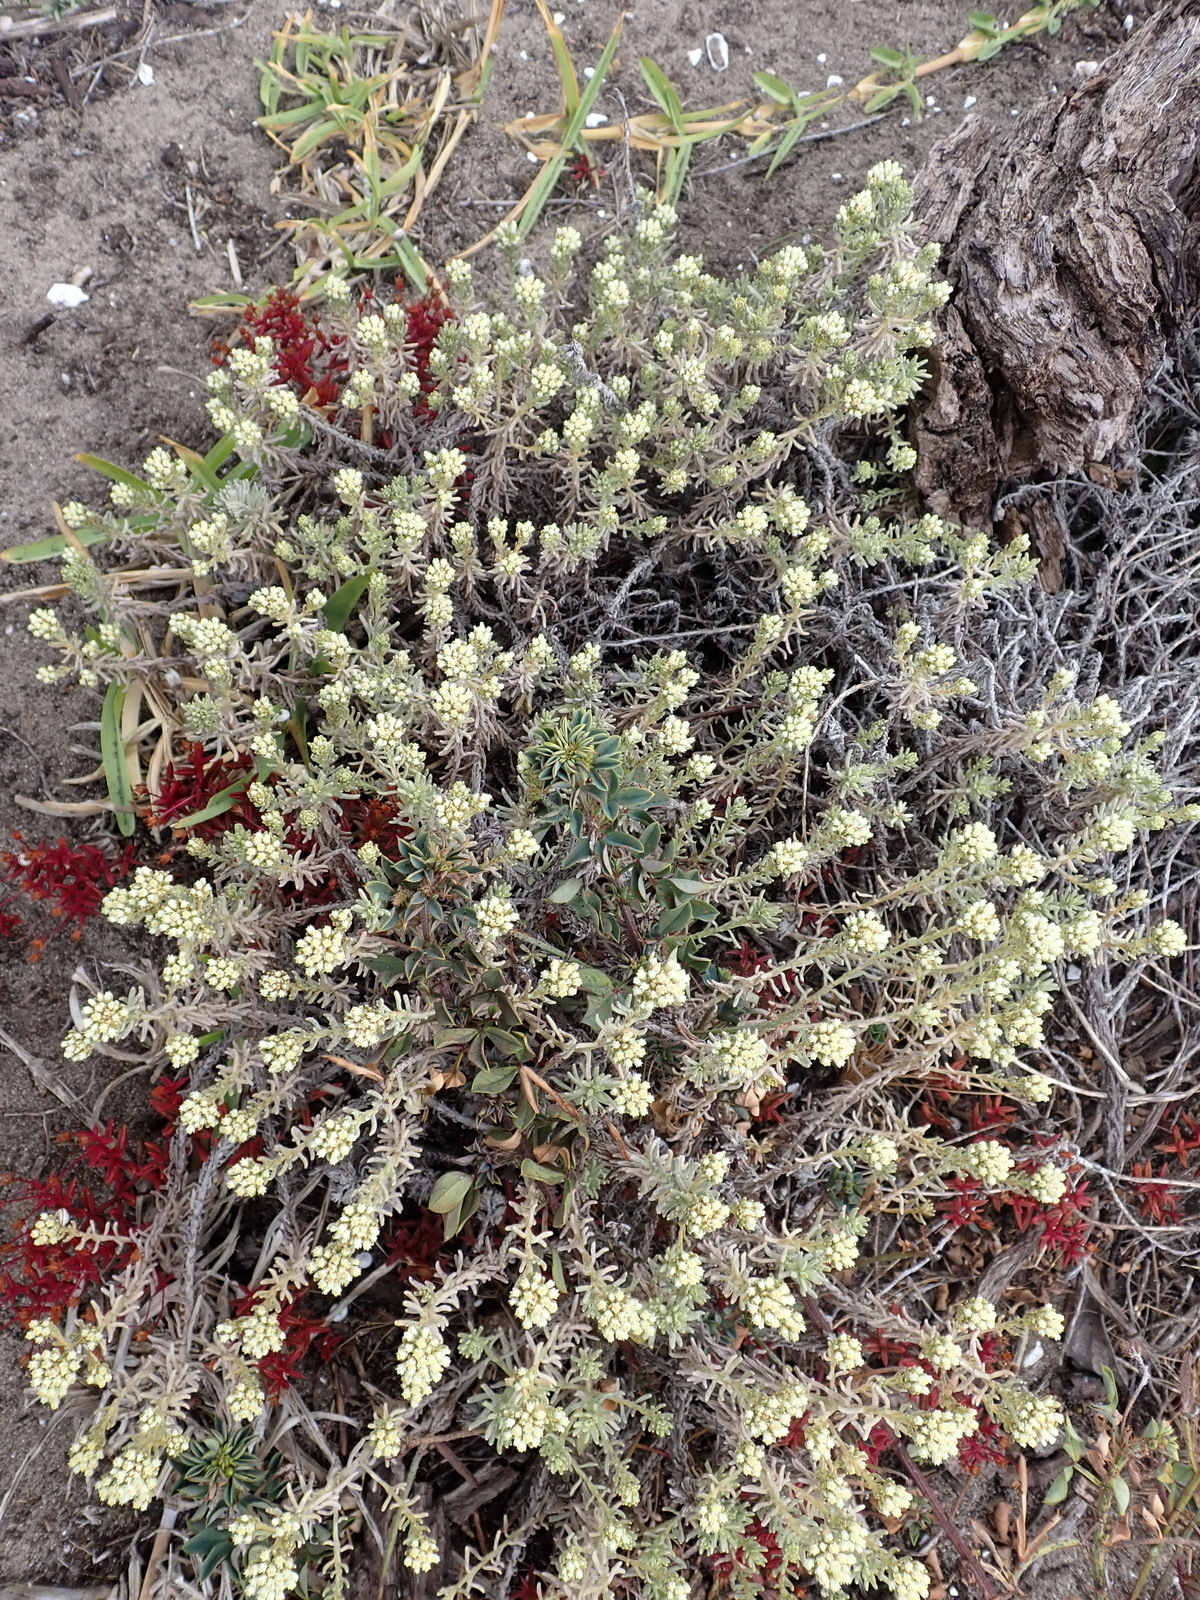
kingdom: Plantae
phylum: Tracheophyta
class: Magnoliopsida
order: Asterales
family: Asteraceae
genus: Helichrysum
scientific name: Helichrysum niveum
